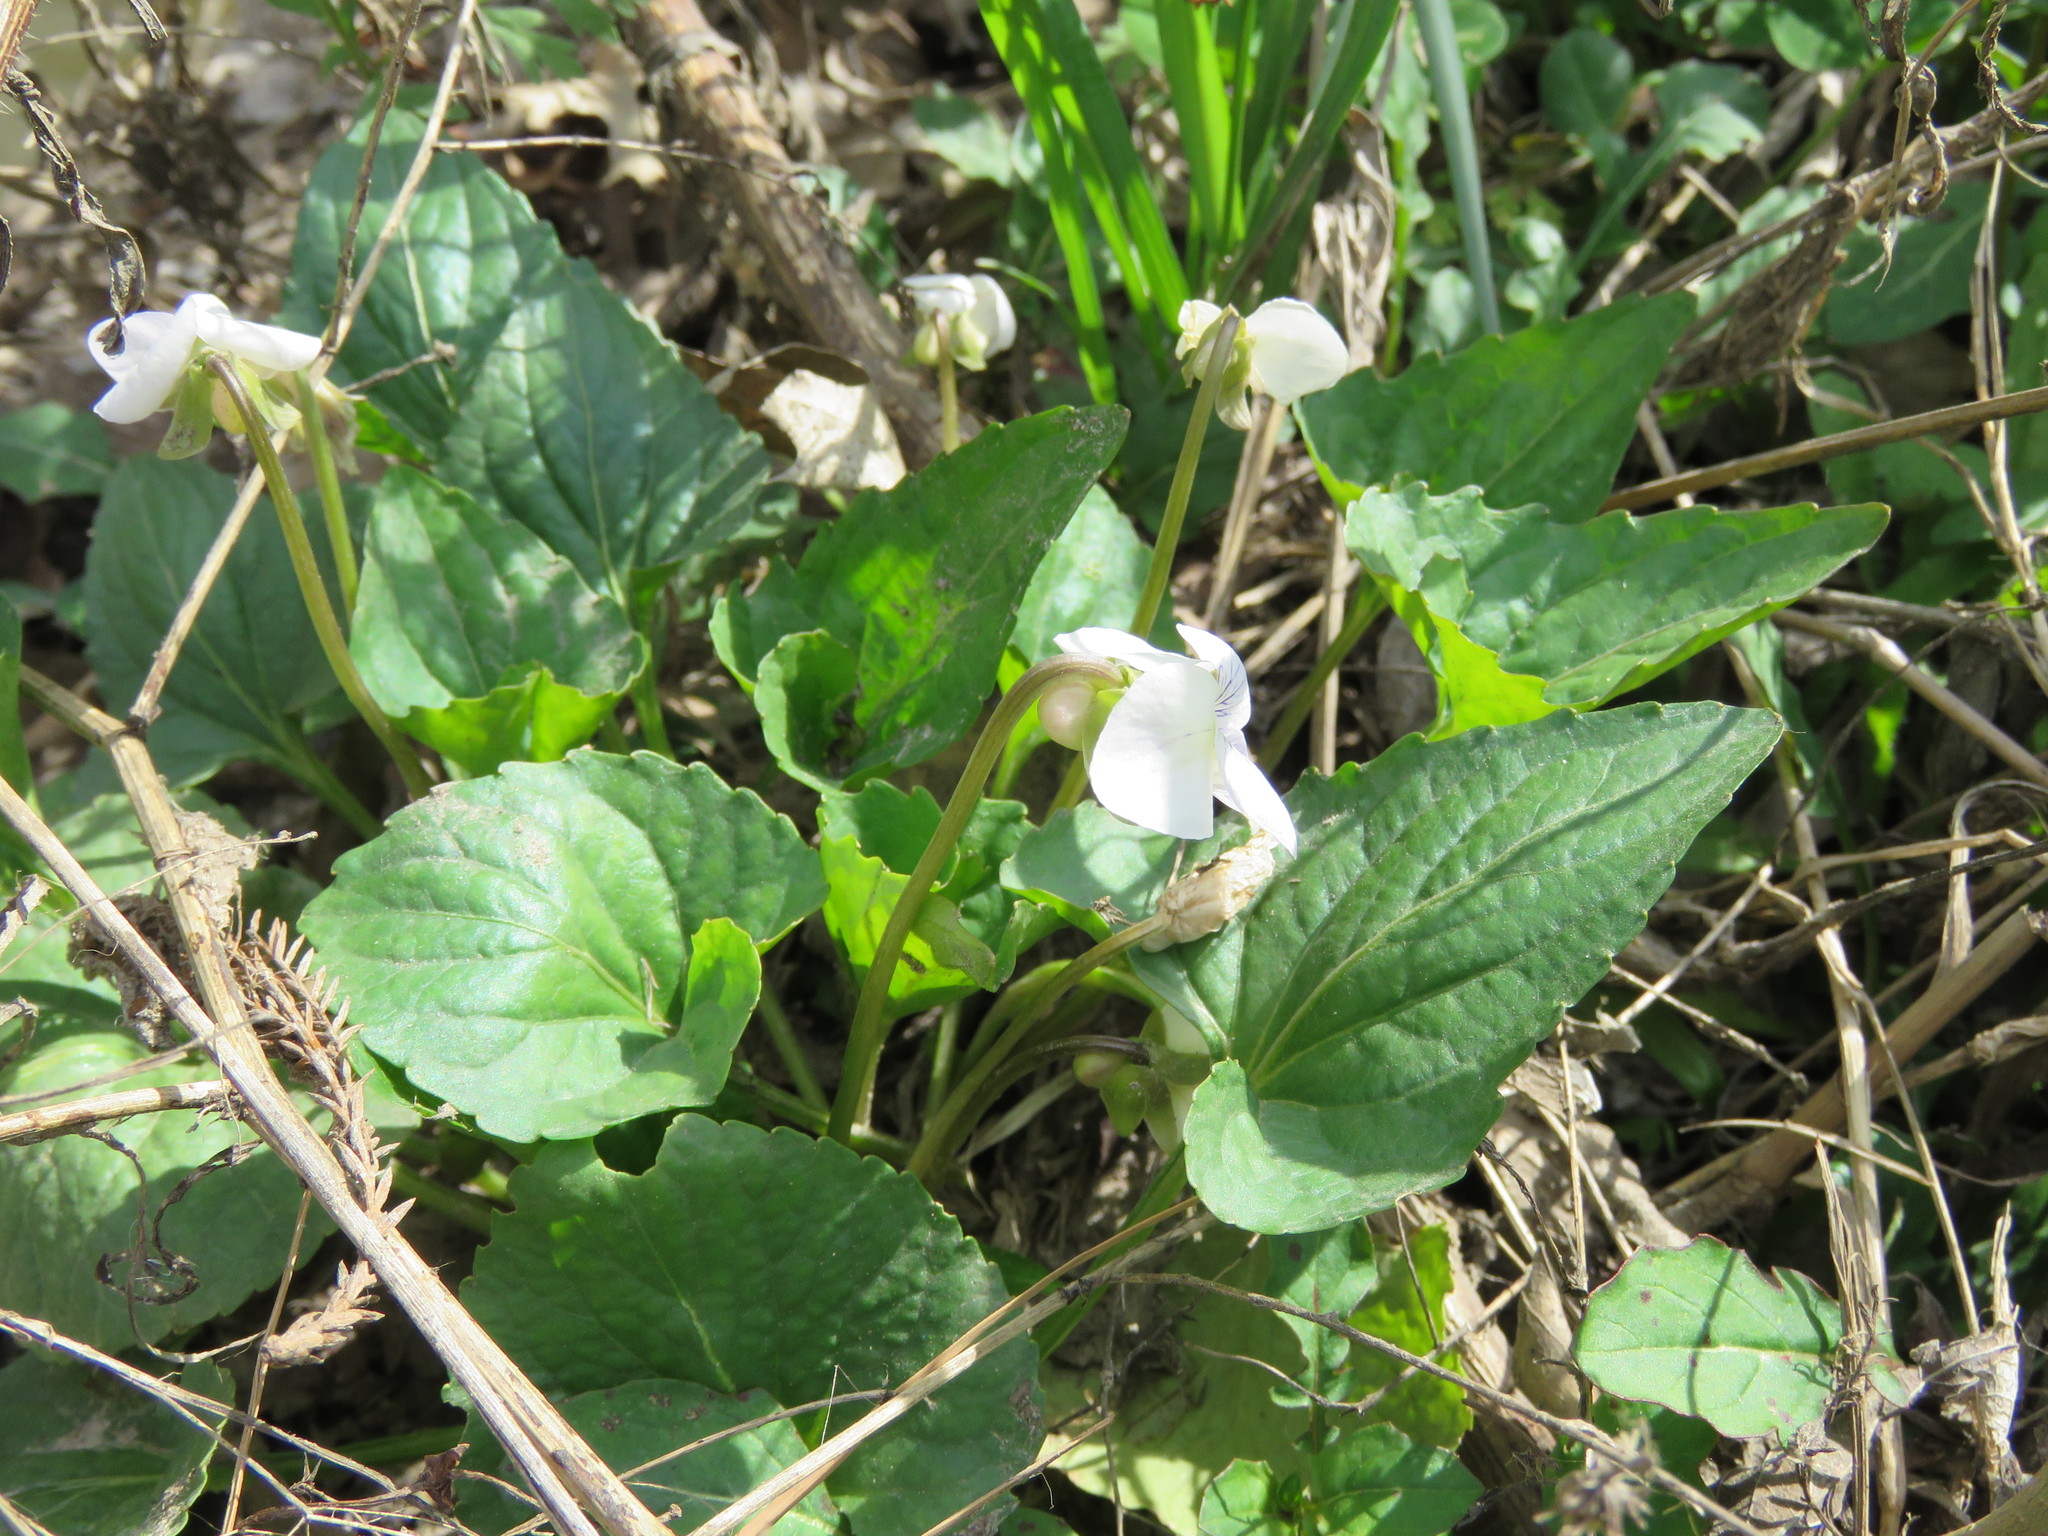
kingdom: Plantae
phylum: Tracheophyta
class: Magnoliopsida
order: Malpighiales
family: Violaceae
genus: Viola
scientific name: Viola sororia
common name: Dooryard violet
